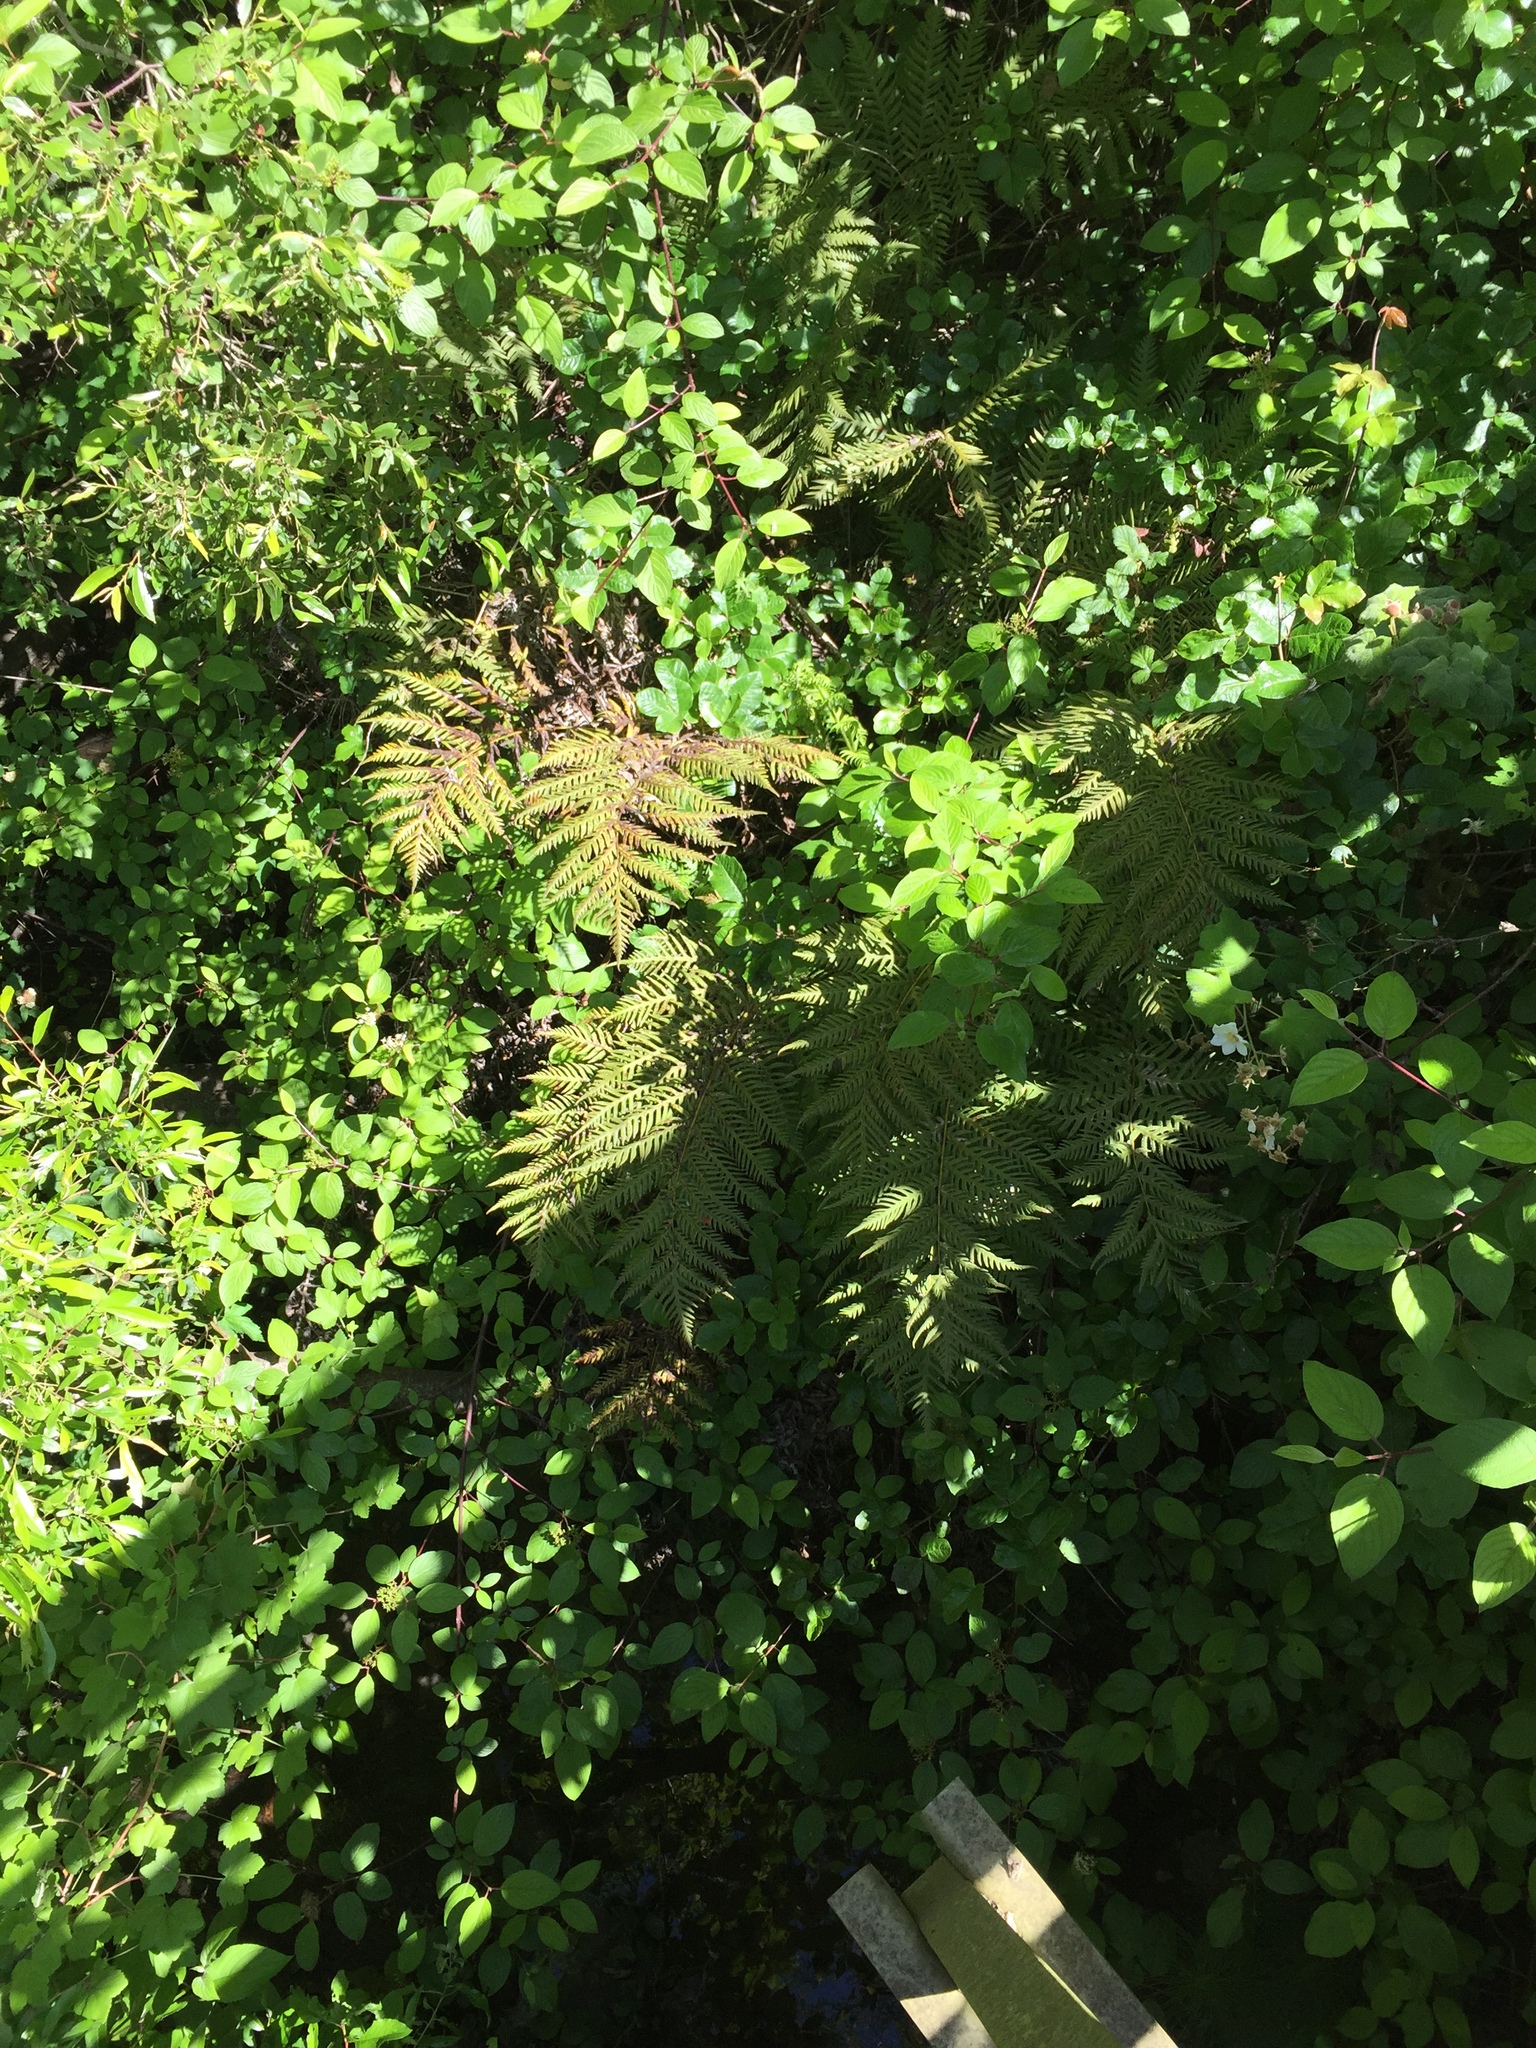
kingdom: Plantae
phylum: Tracheophyta
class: Polypodiopsida
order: Polypodiales
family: Blechnaceae
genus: Woodwardia
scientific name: Woodwardia fimbriata
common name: Giant chain fern
